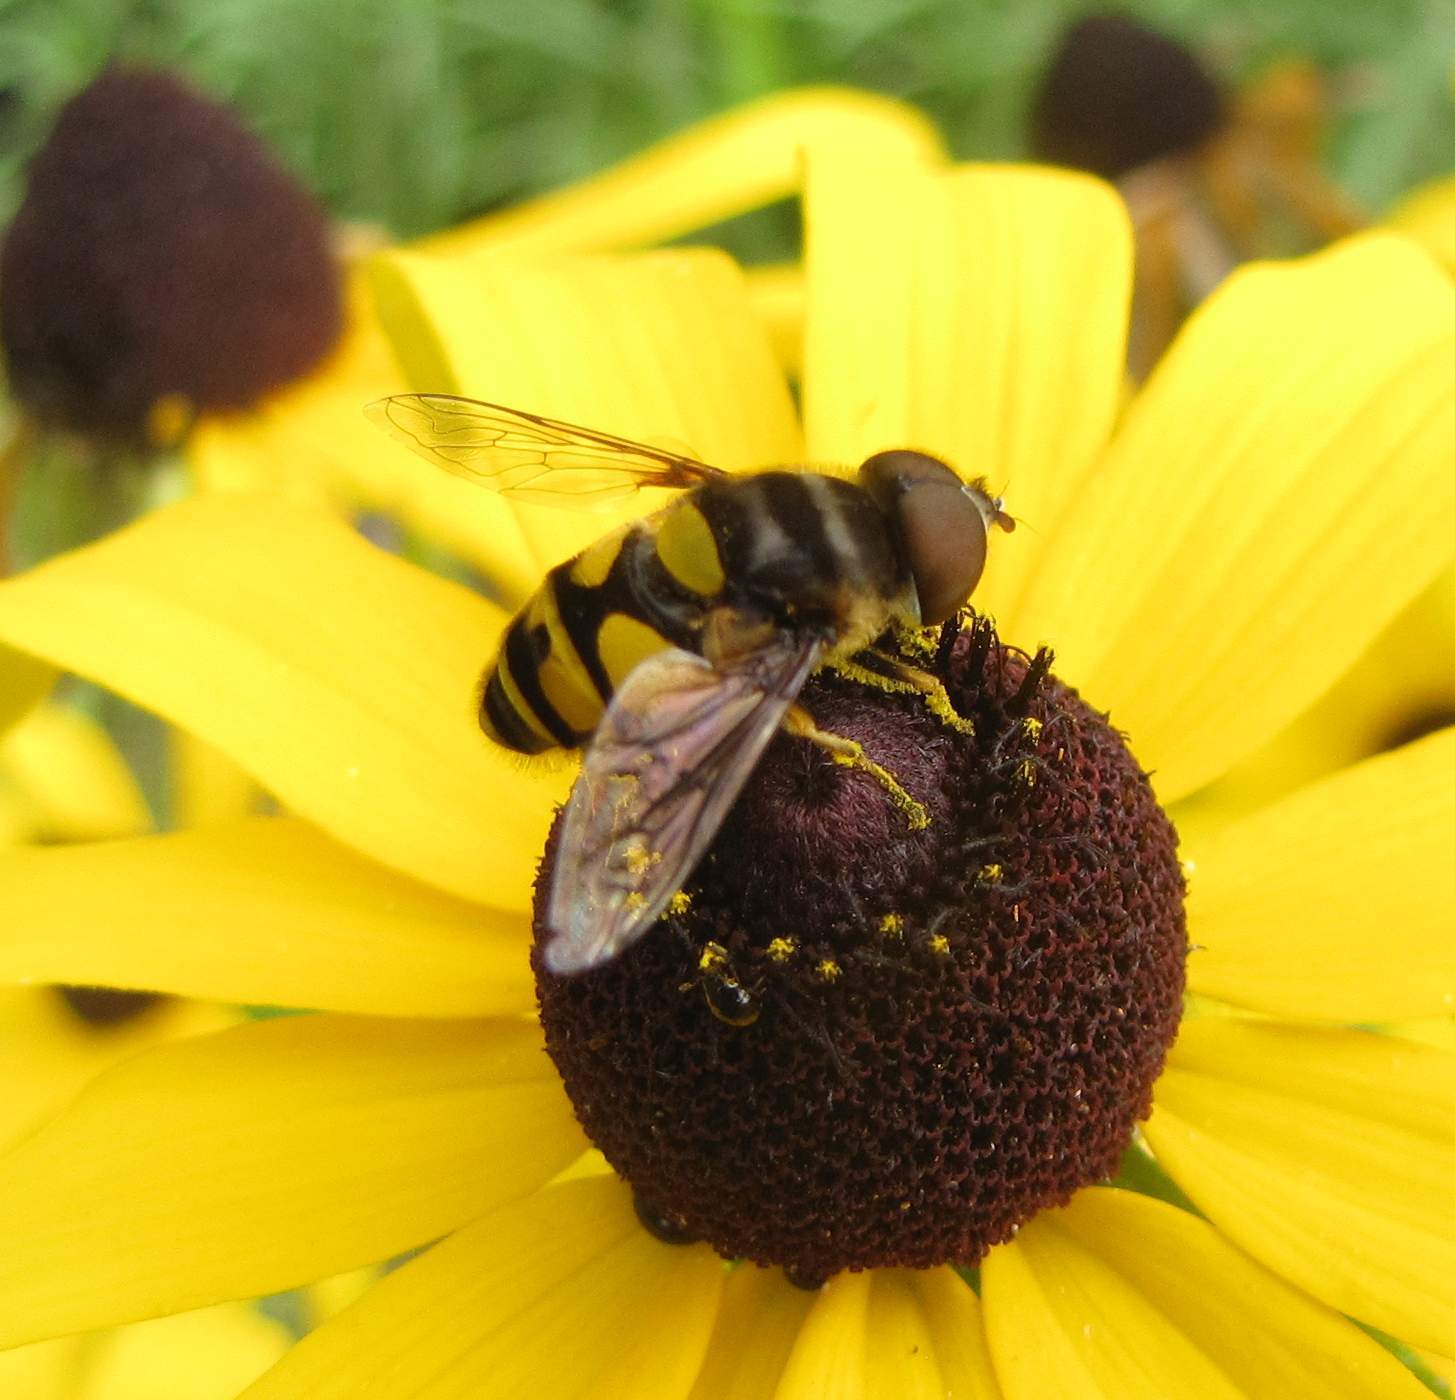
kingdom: Animalia
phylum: Arthropoda
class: Insecta
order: Diptera
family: Syrphidae
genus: Eristalis
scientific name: Eristalis transversa
